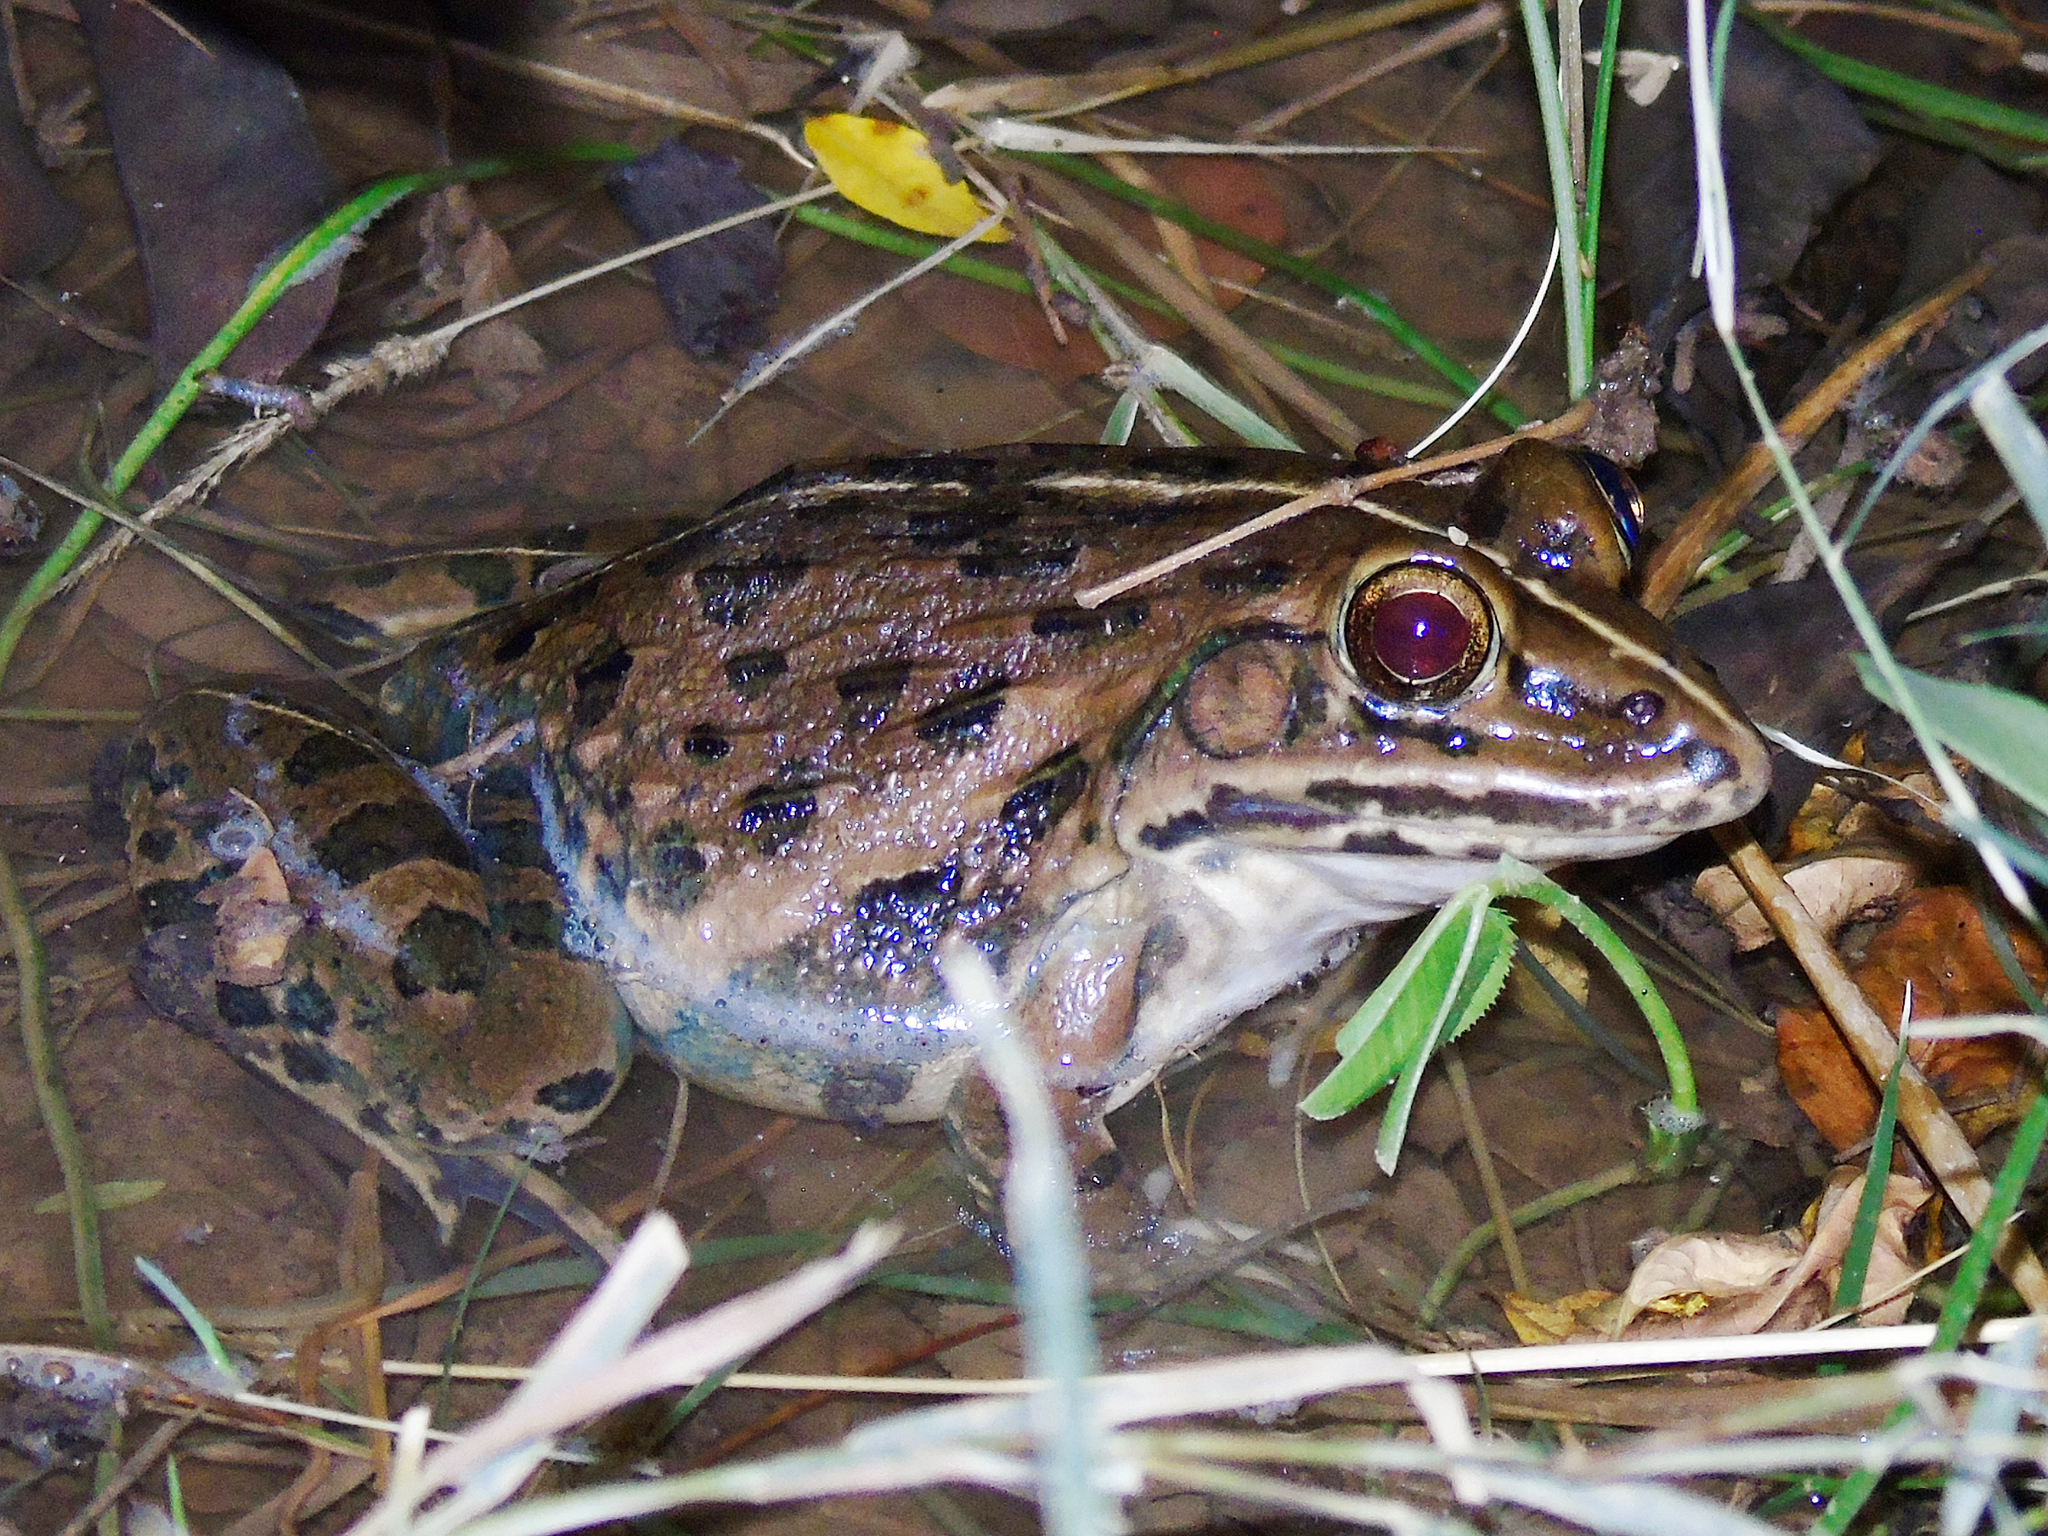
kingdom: Animalia
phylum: Chordata
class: Amphibia
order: Anura
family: Dicroglossidae
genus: Hoplobatrachus
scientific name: Hoplobatrachus tigerinus
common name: Indian bullfrog
